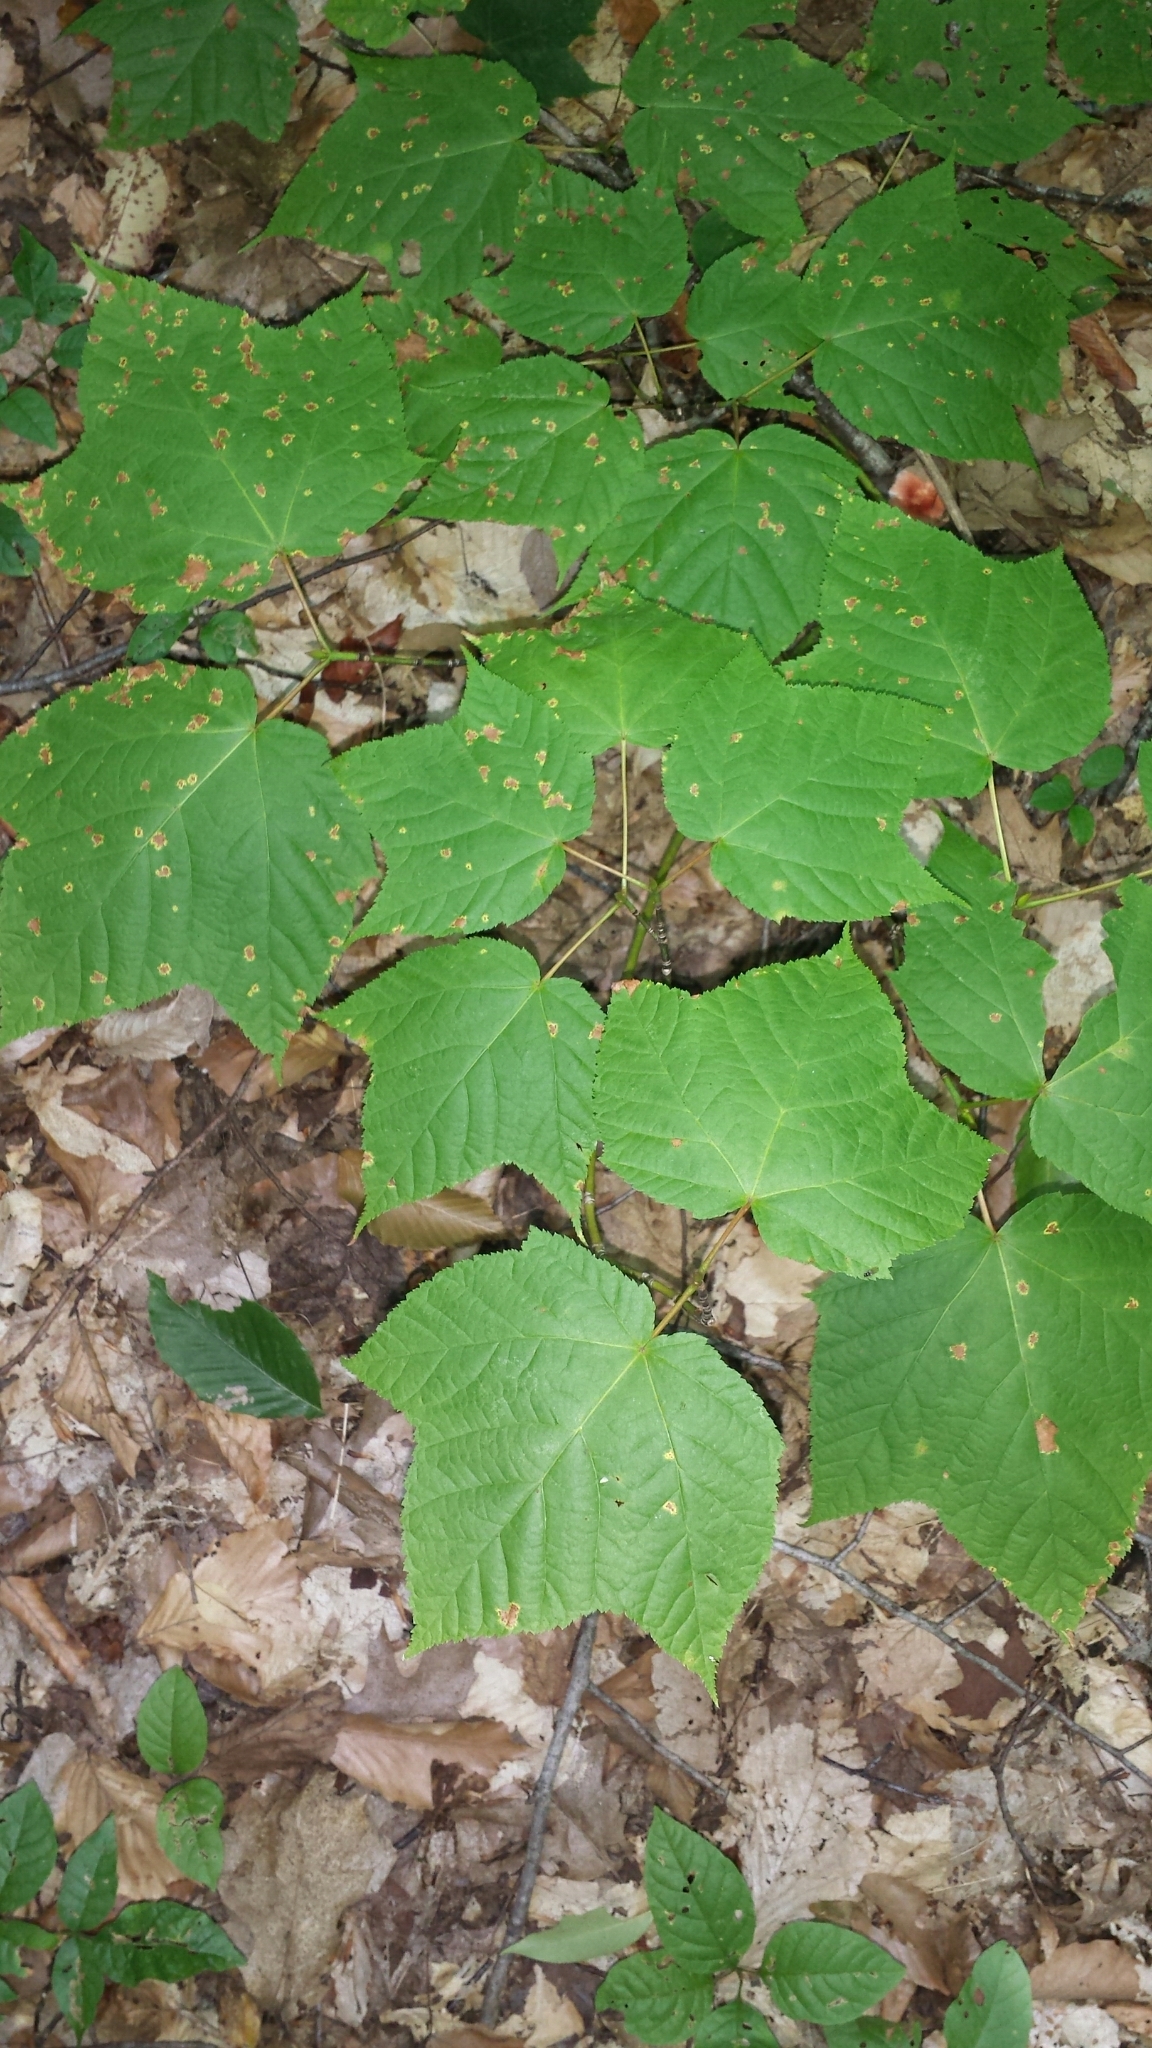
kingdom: Plantae
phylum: Tracheophyta
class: Magnoliopsida
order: Sapindales
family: Sapindaceae
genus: Acer
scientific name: Acer pensylvanicum
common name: Moosewood
